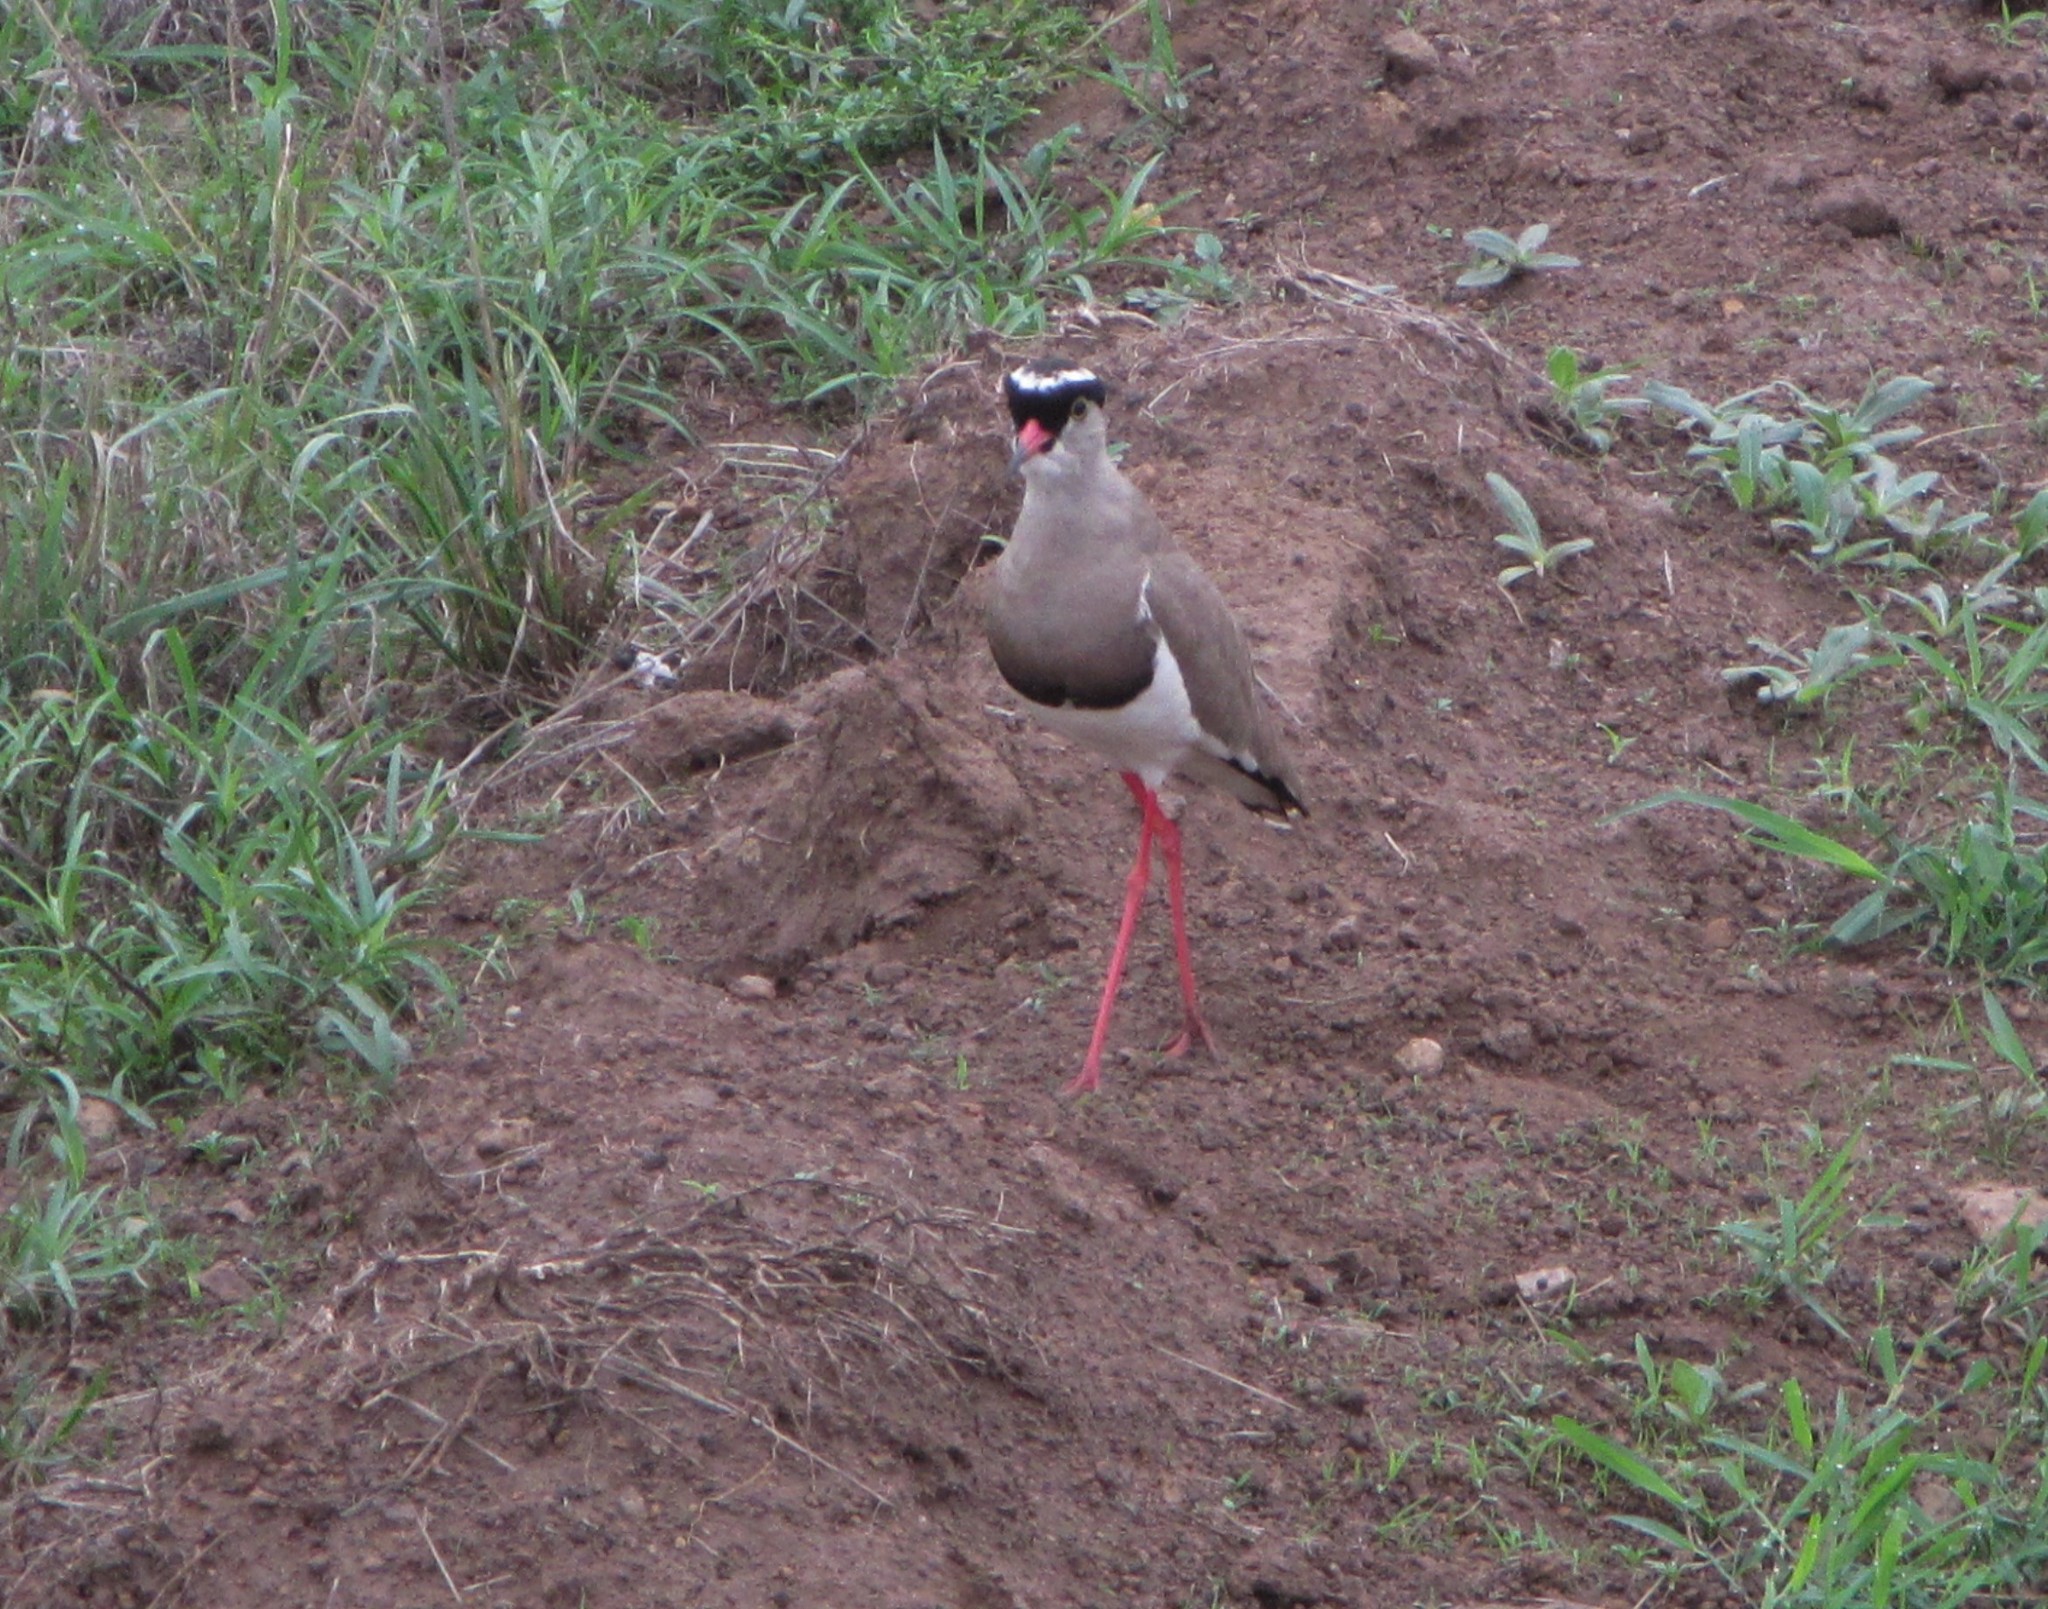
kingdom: Animalia
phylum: Chordata
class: Aves
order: Charadriiformes
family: Charadriidae
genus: Vanellus
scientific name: Vanellus coronatus
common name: Crowned lapwing
